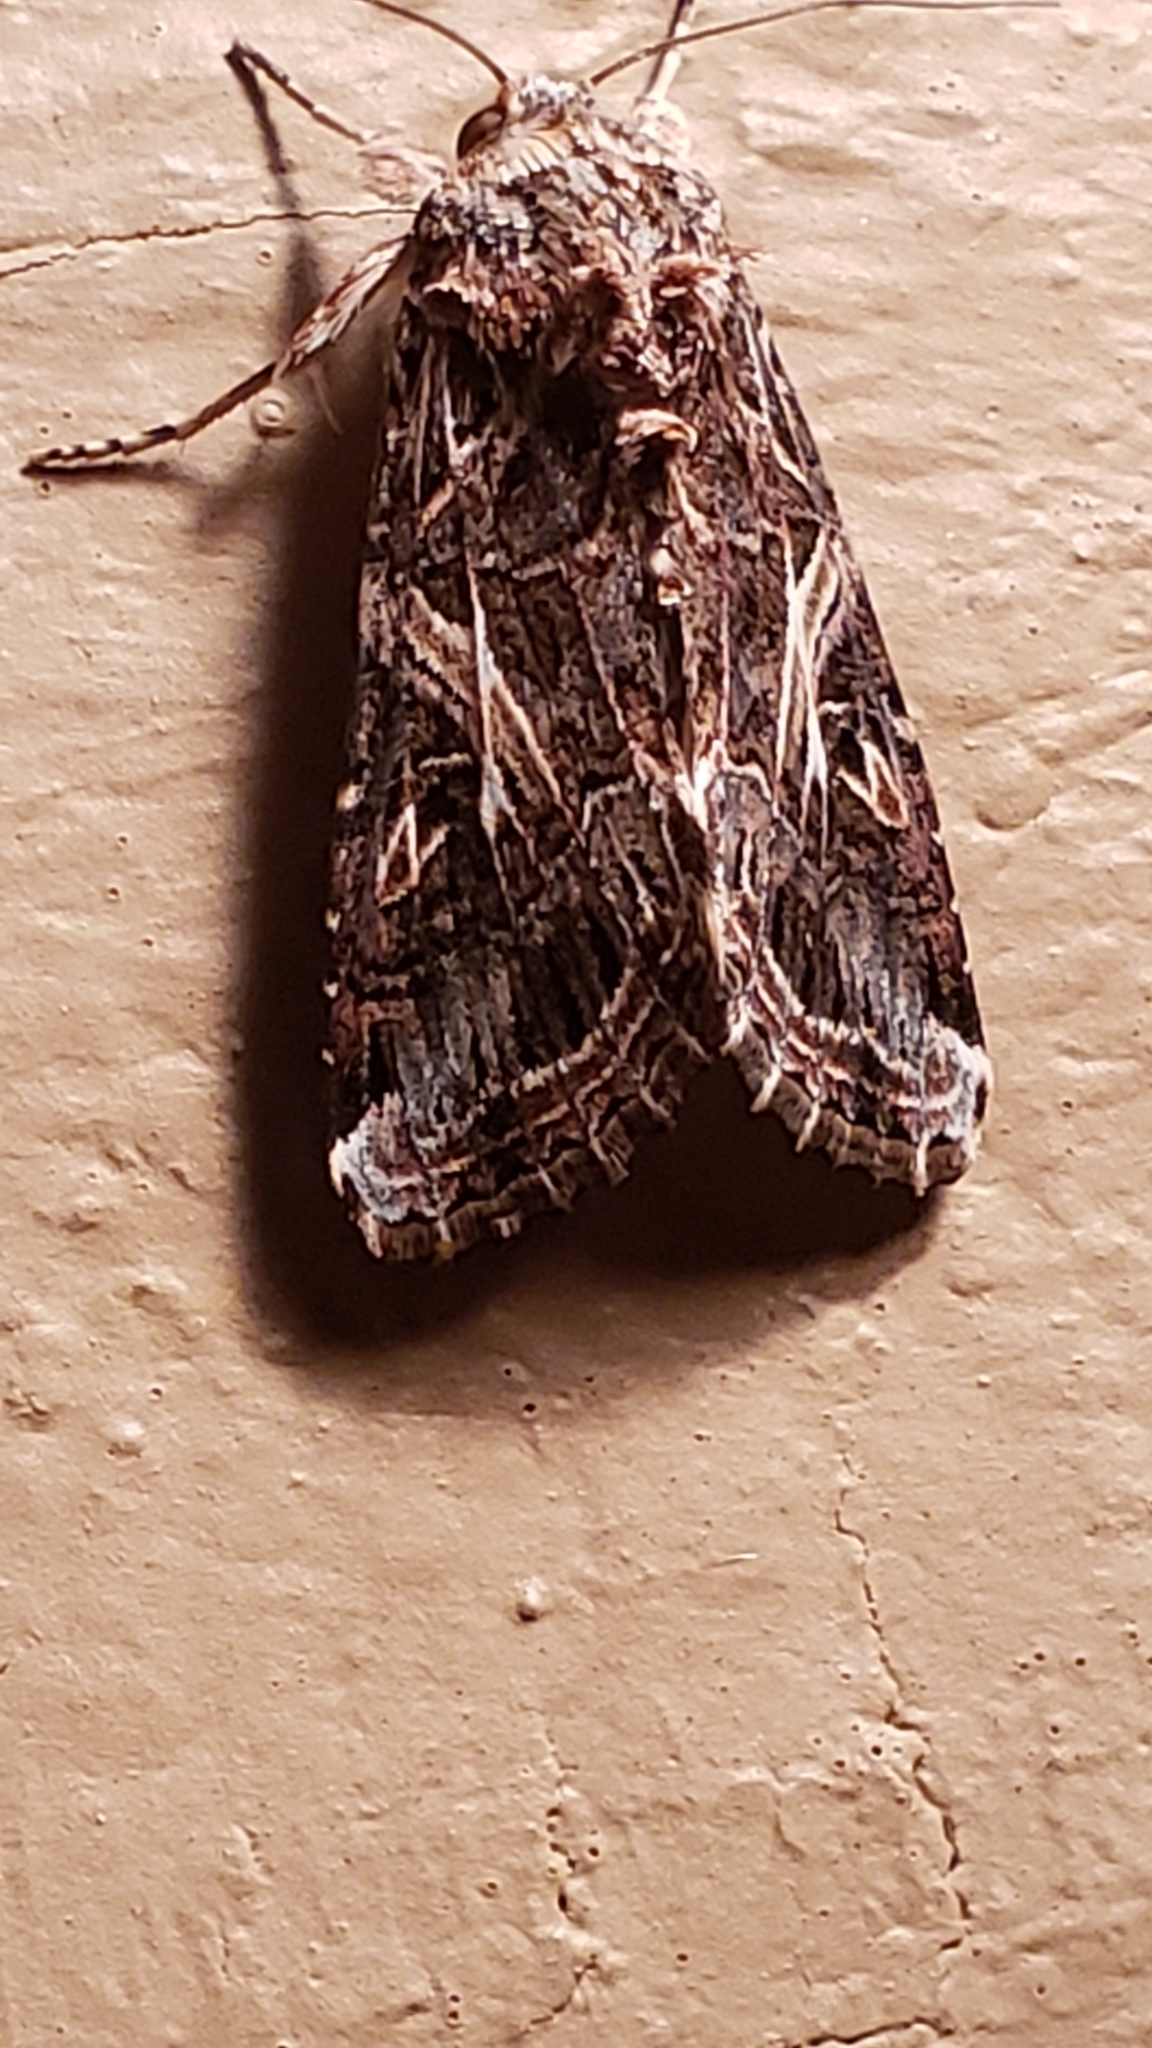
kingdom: Animalia
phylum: Arthropoda
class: Insecta
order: Lepidoptera
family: Noctuidae
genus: Spodoptera
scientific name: Spodoptera ornithogalli
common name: Yellow-striped armyworm
